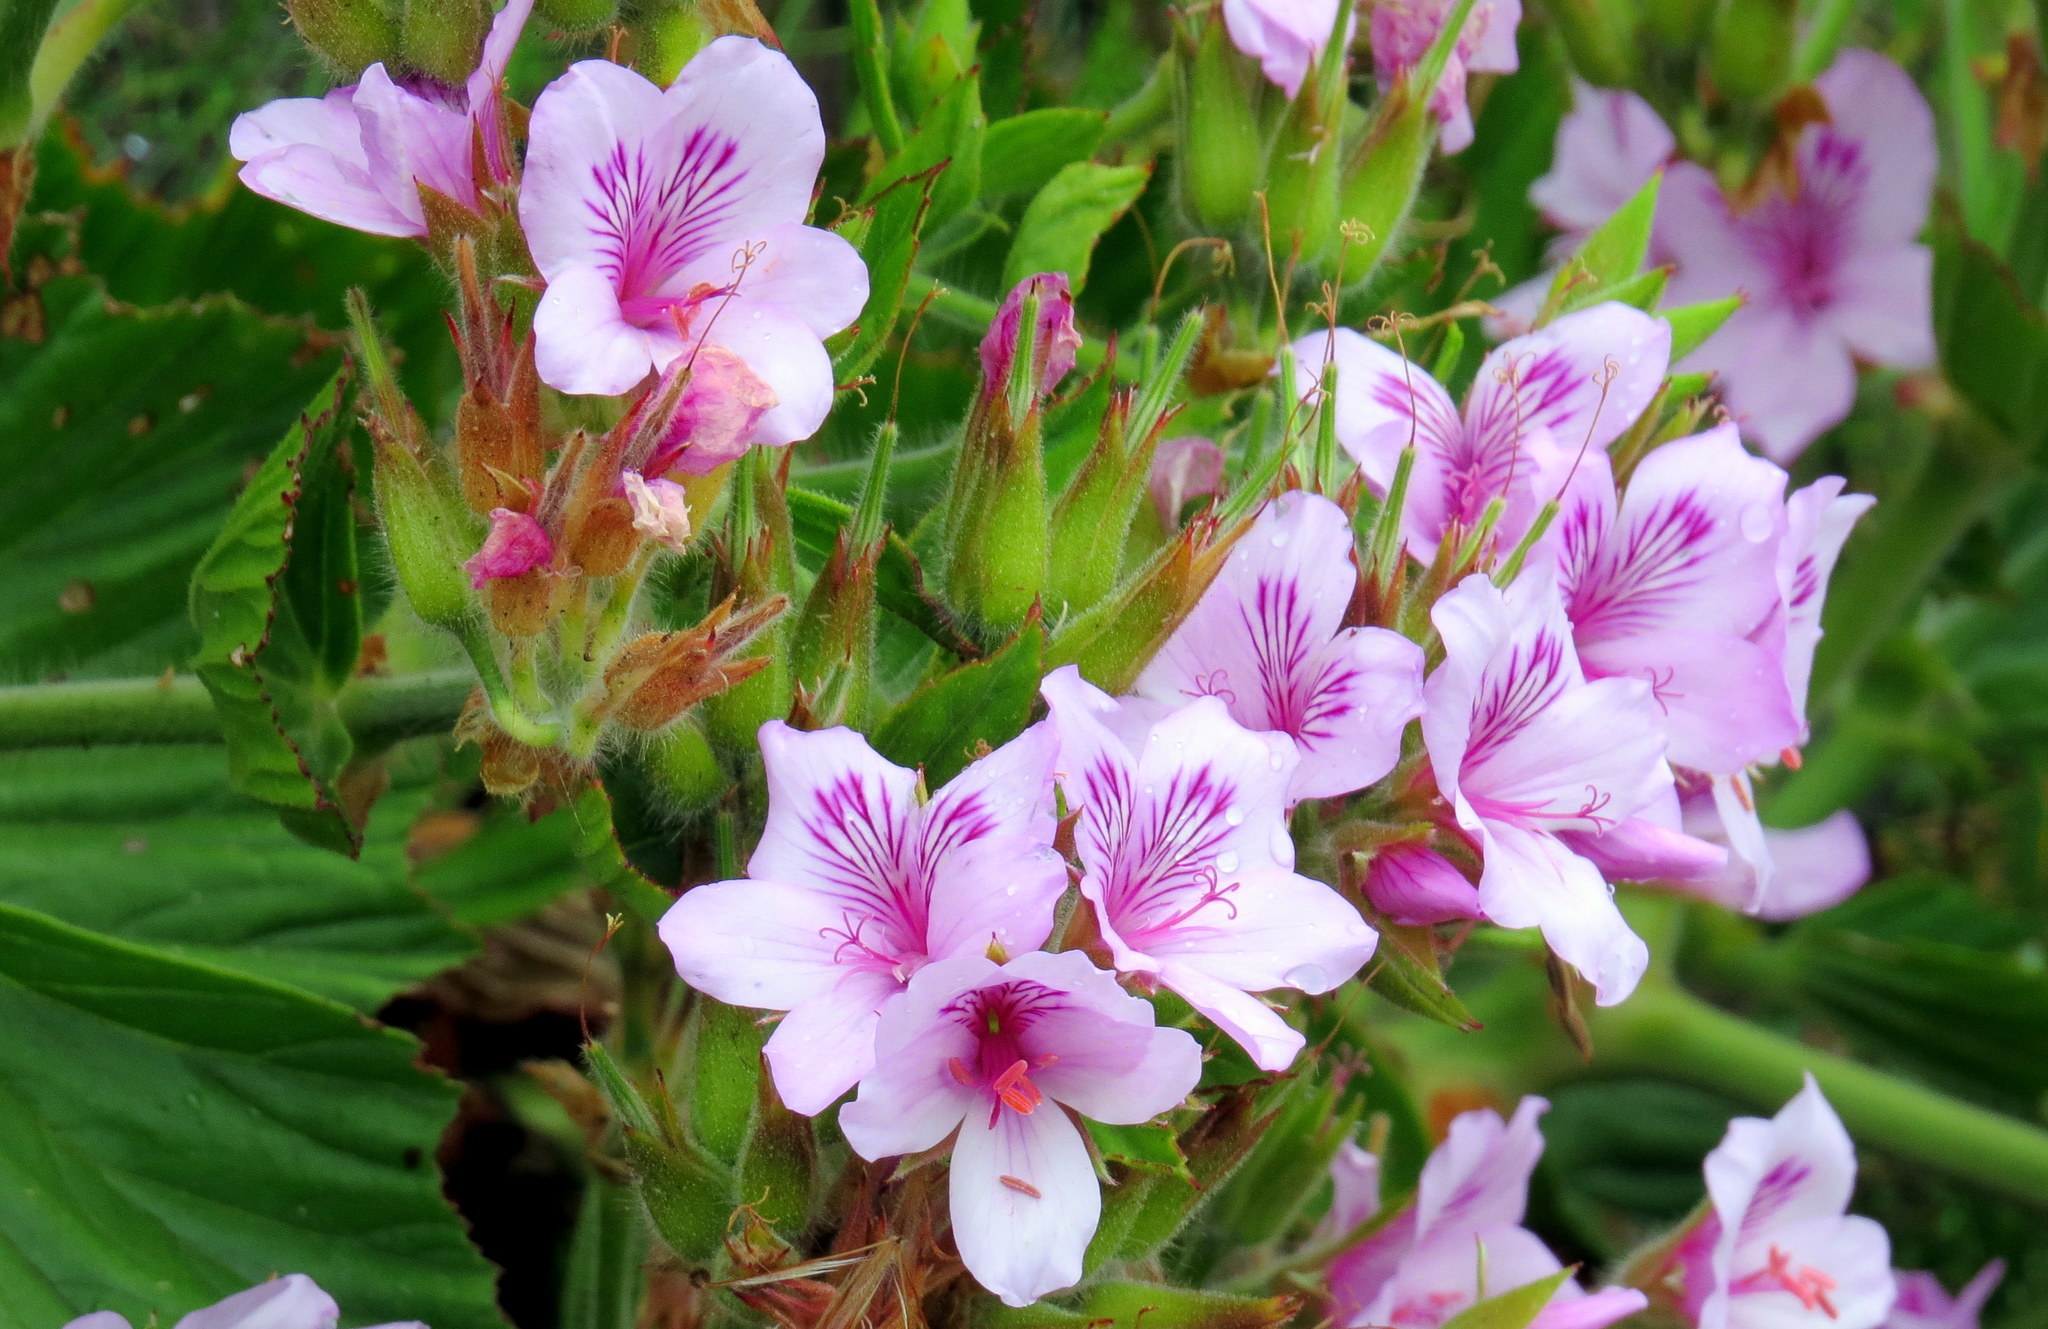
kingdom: Plantae
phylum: Tracheophyta
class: Magnoliopsida
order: Geraniales
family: Geraniaceae
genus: Pelargonium
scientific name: Pelargonium cucullatum
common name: Tree pelargonium
